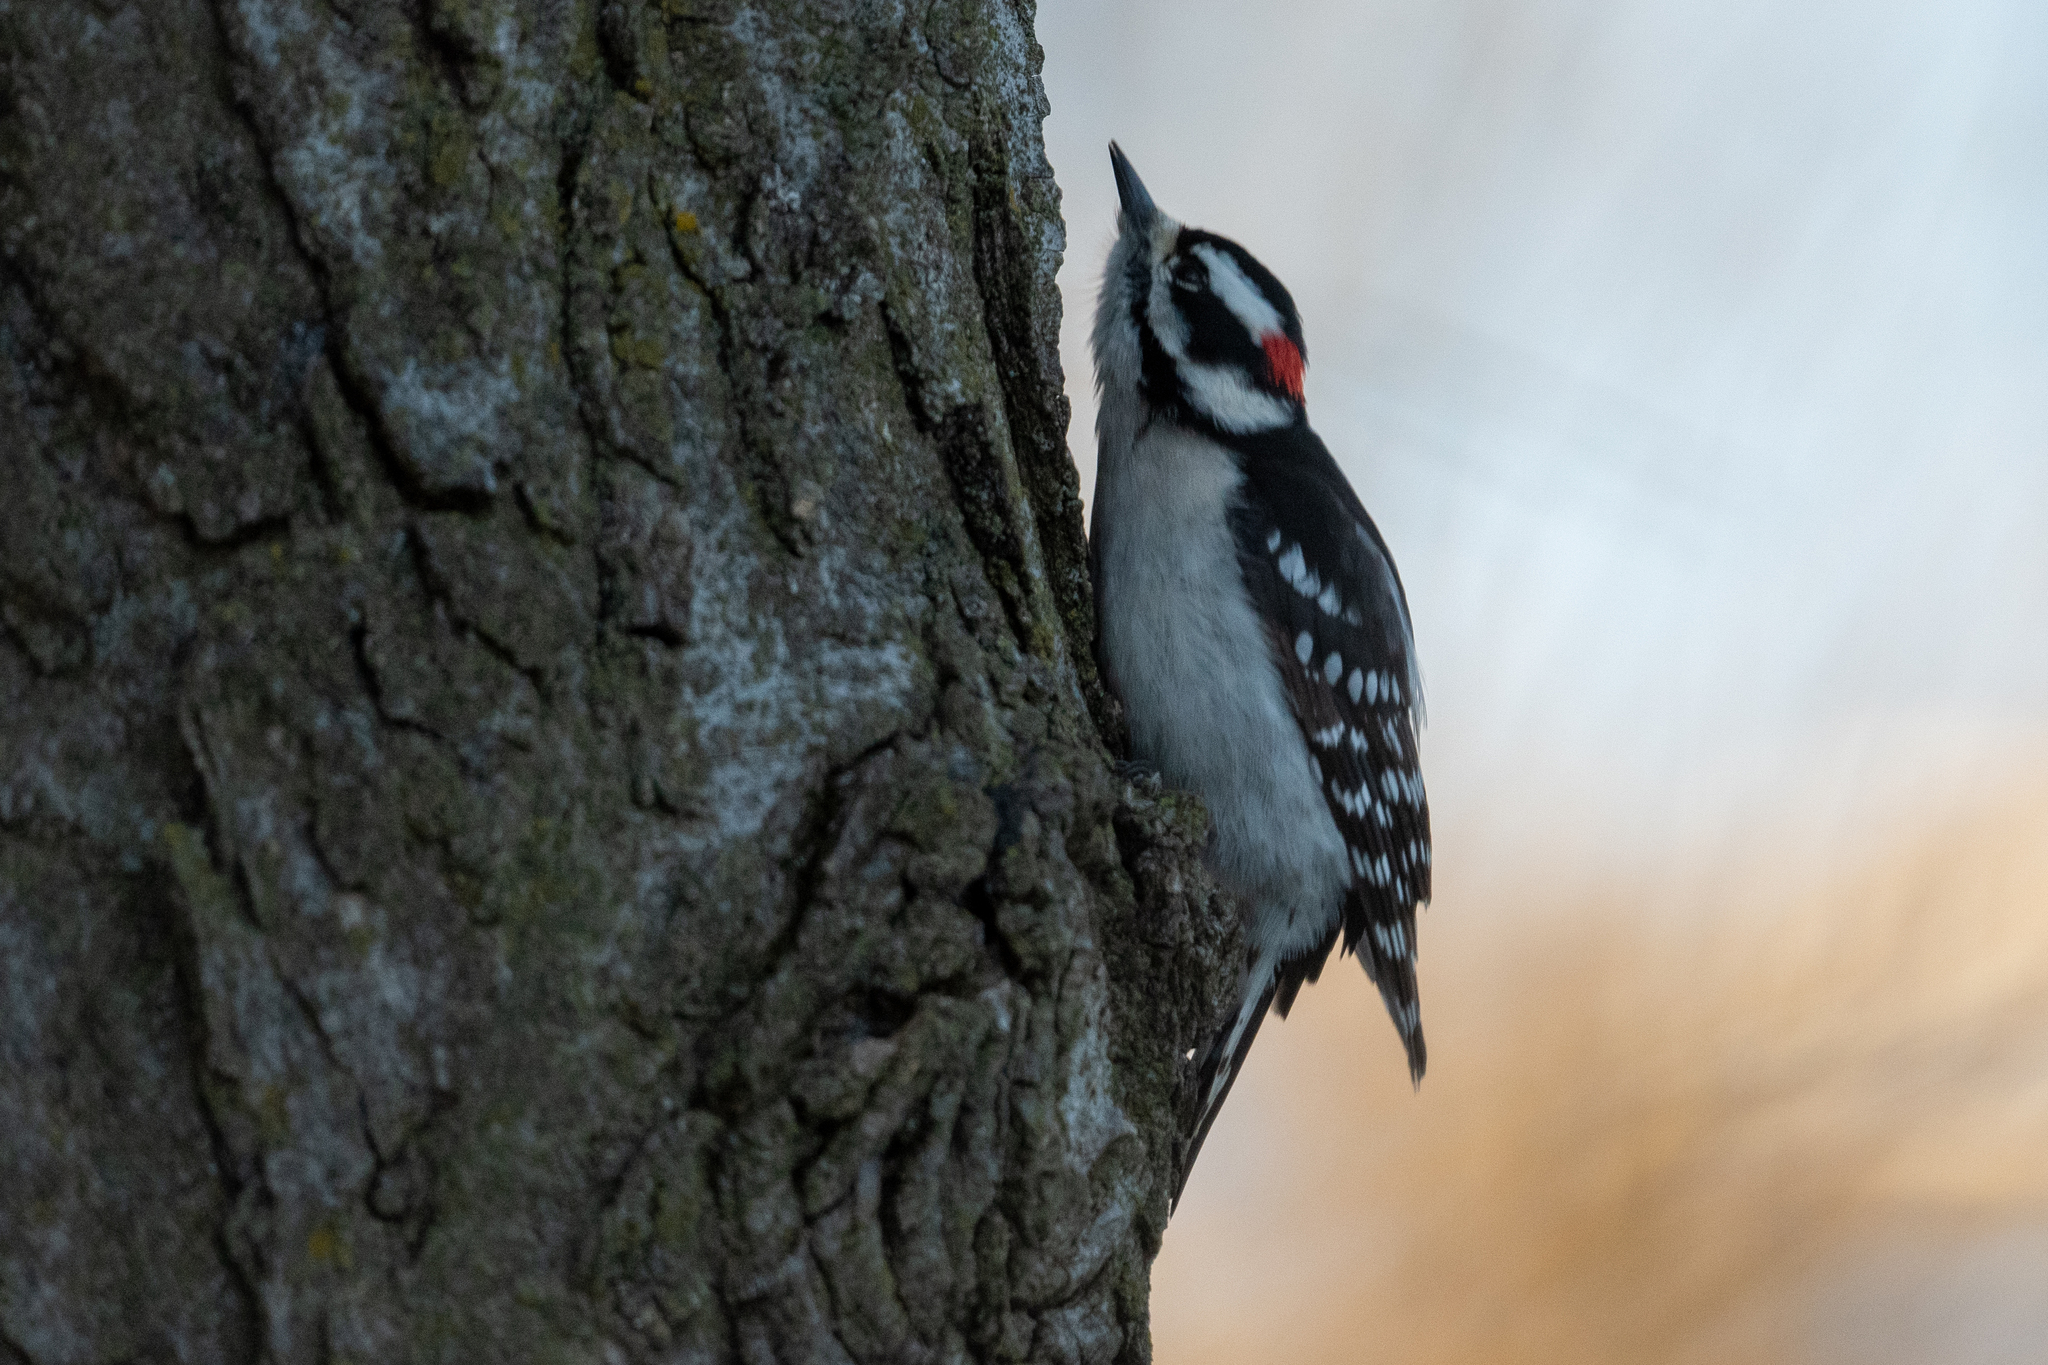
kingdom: Animalia
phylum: Chordata
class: Aves
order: Piciformes
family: Picidae
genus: Dryobates
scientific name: Dryobates pubescens
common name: Downy woodpecker
